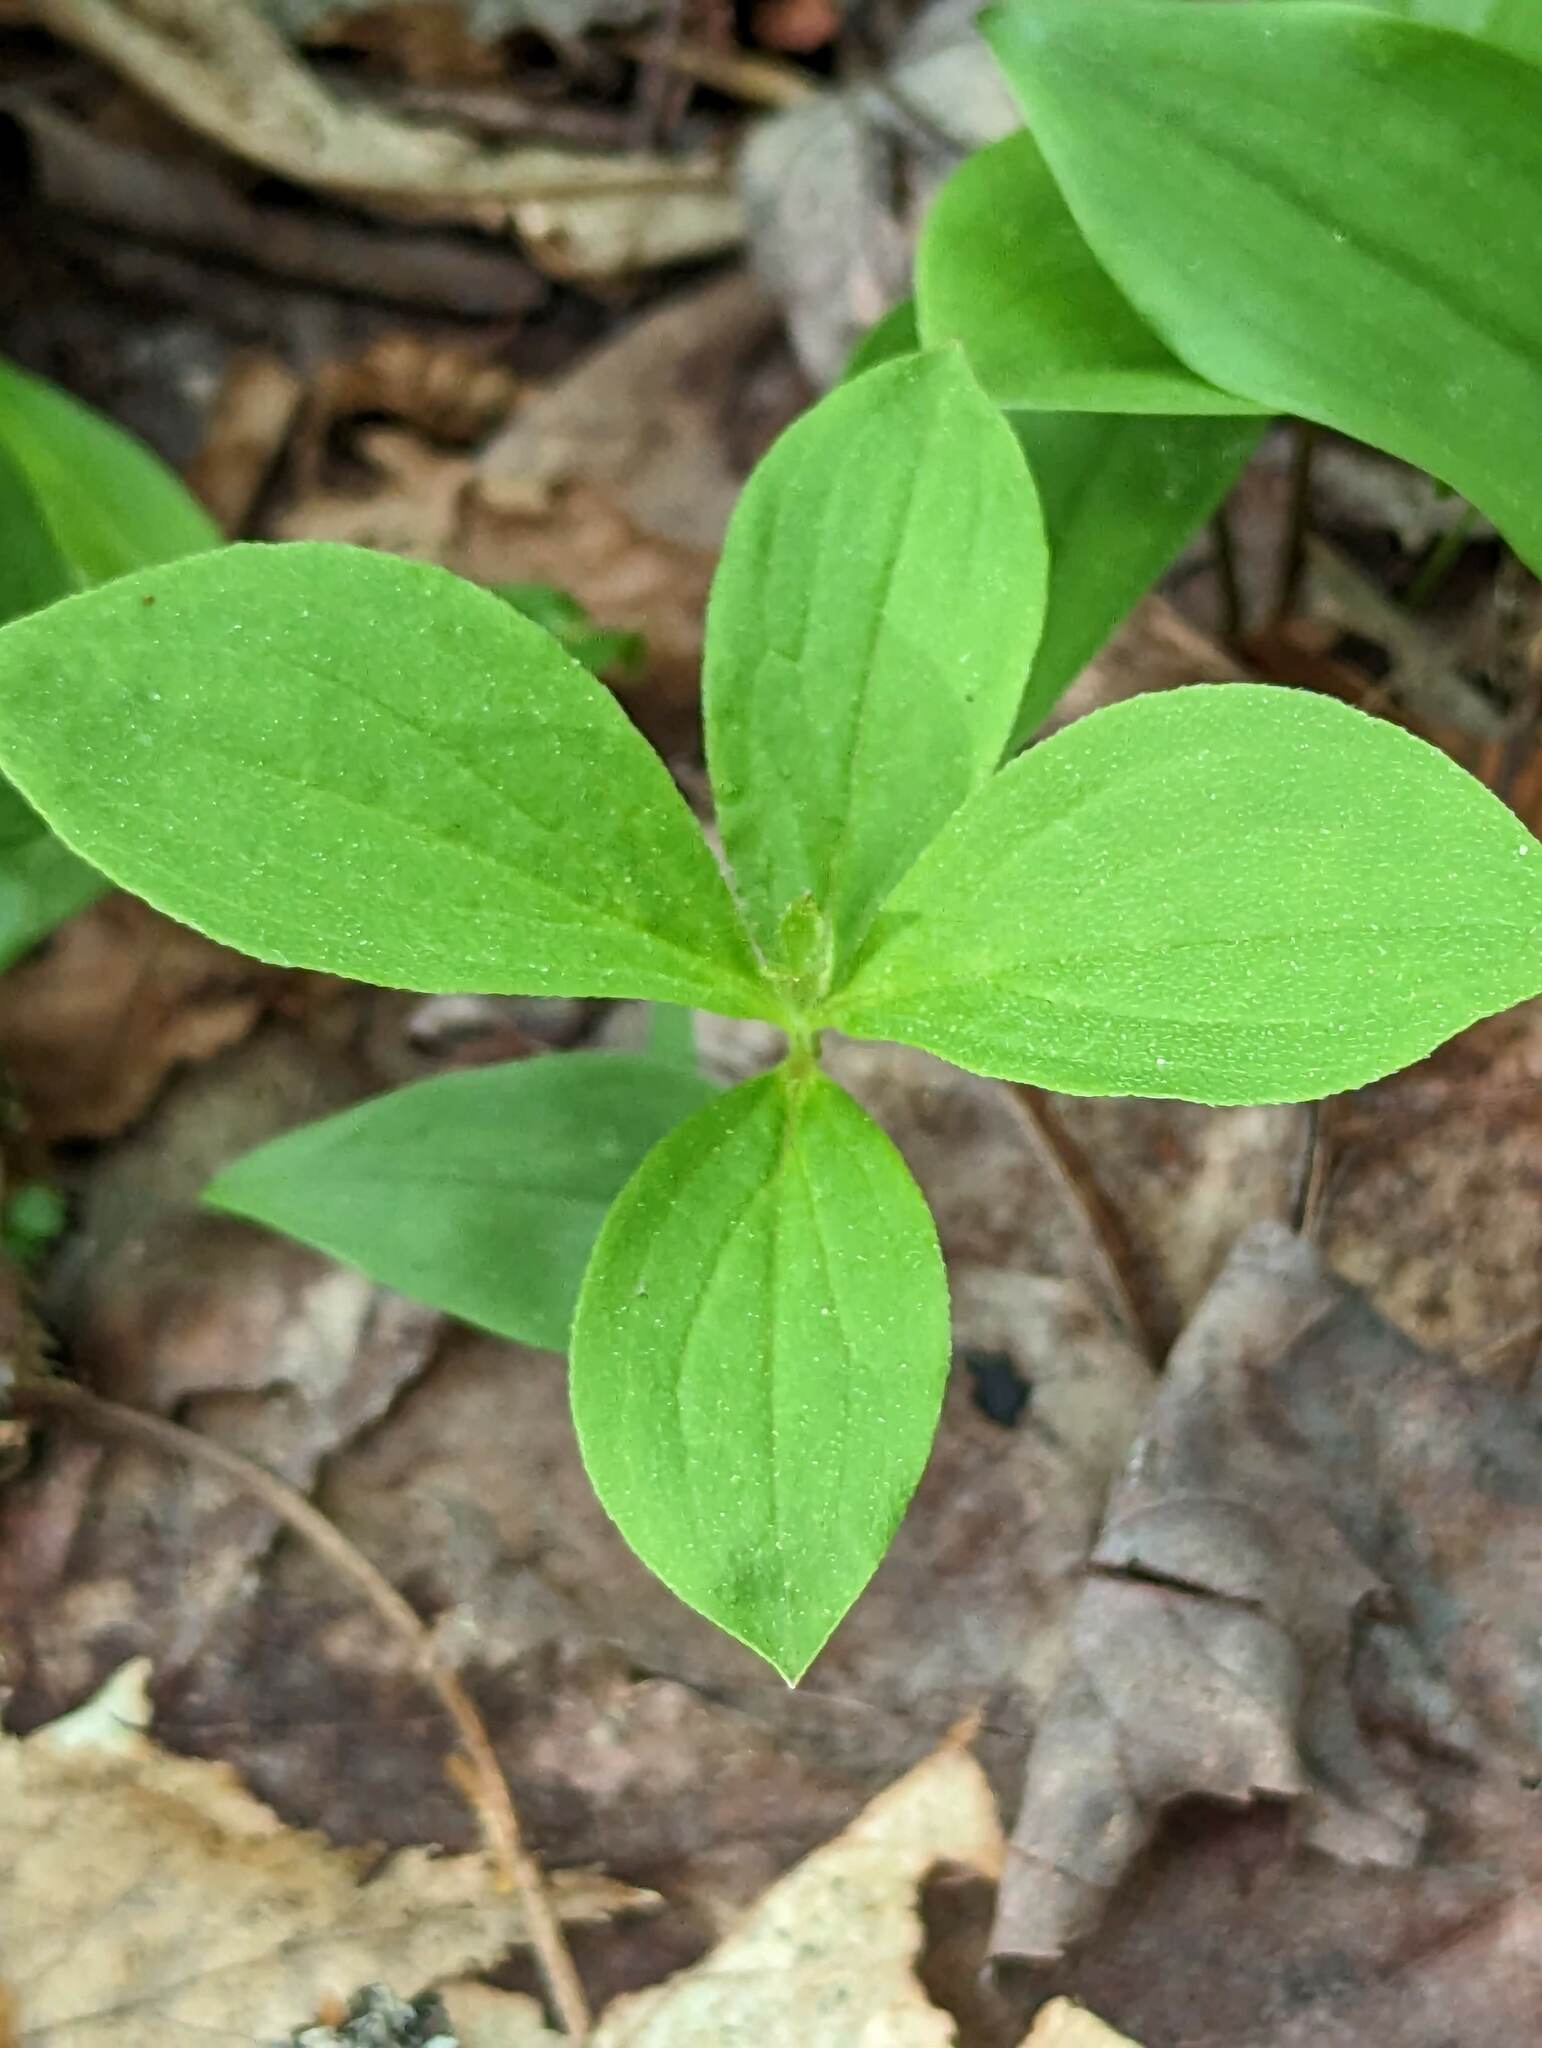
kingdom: Plantae
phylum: Tracheophyta
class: Magnoliopsida
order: Cornales
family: Cornaceae
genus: Cornus
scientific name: Cornus canadensis
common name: Creeping dogwood
